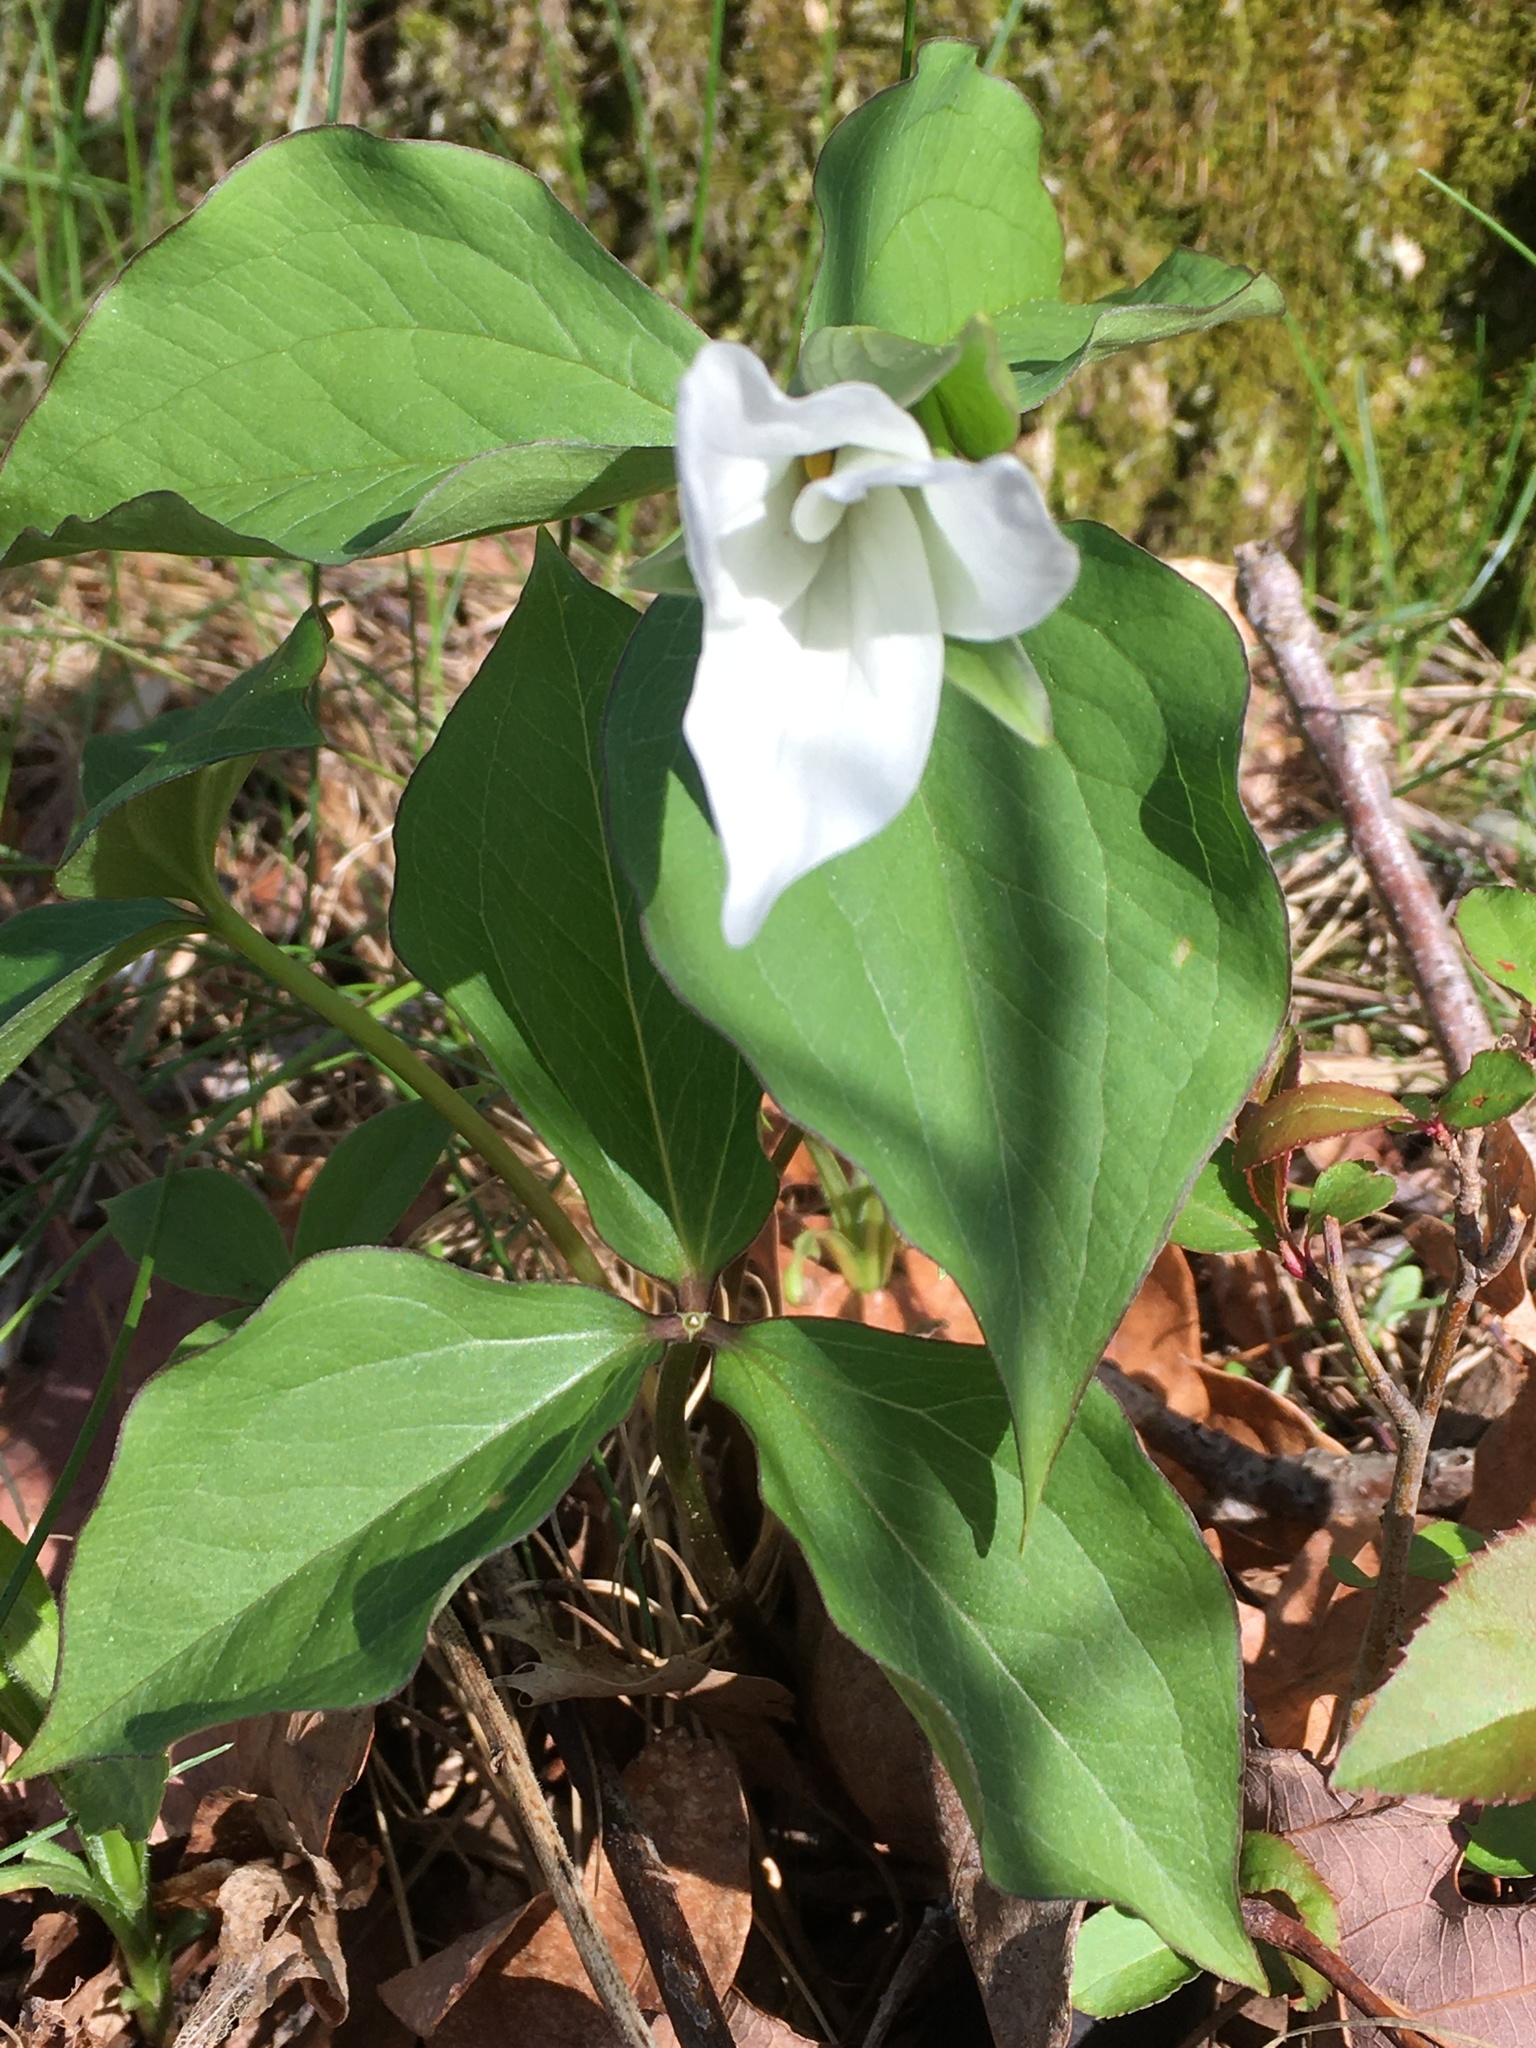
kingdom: Plantae
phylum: Tracheophyta
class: Liliopsida
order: Liliales
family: Melanthiaceae
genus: Trillium
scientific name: Trillium grandiflorum
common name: Great white trillium
